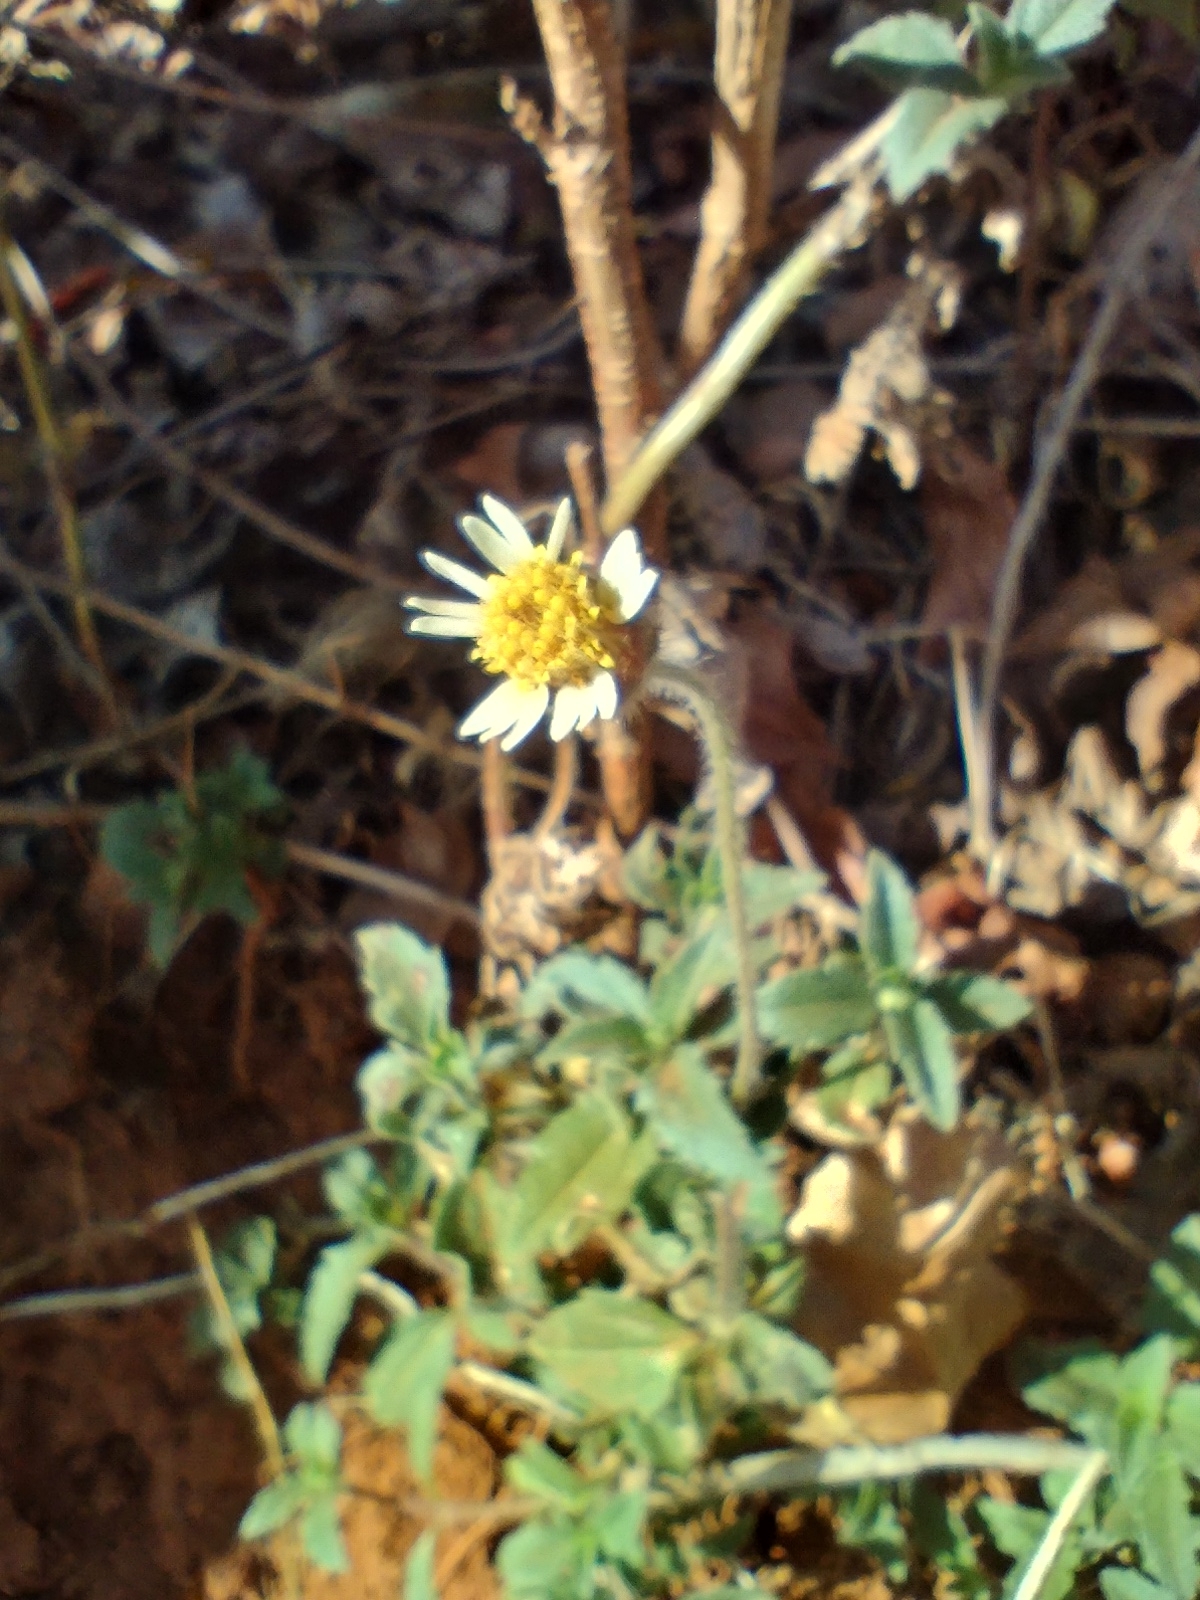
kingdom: Plantae
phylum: Tracheophyta
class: Magnoliopsida
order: Asterales
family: Asteraceae
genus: Tridax
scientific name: Tridax procumbens
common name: Coatbuttons
